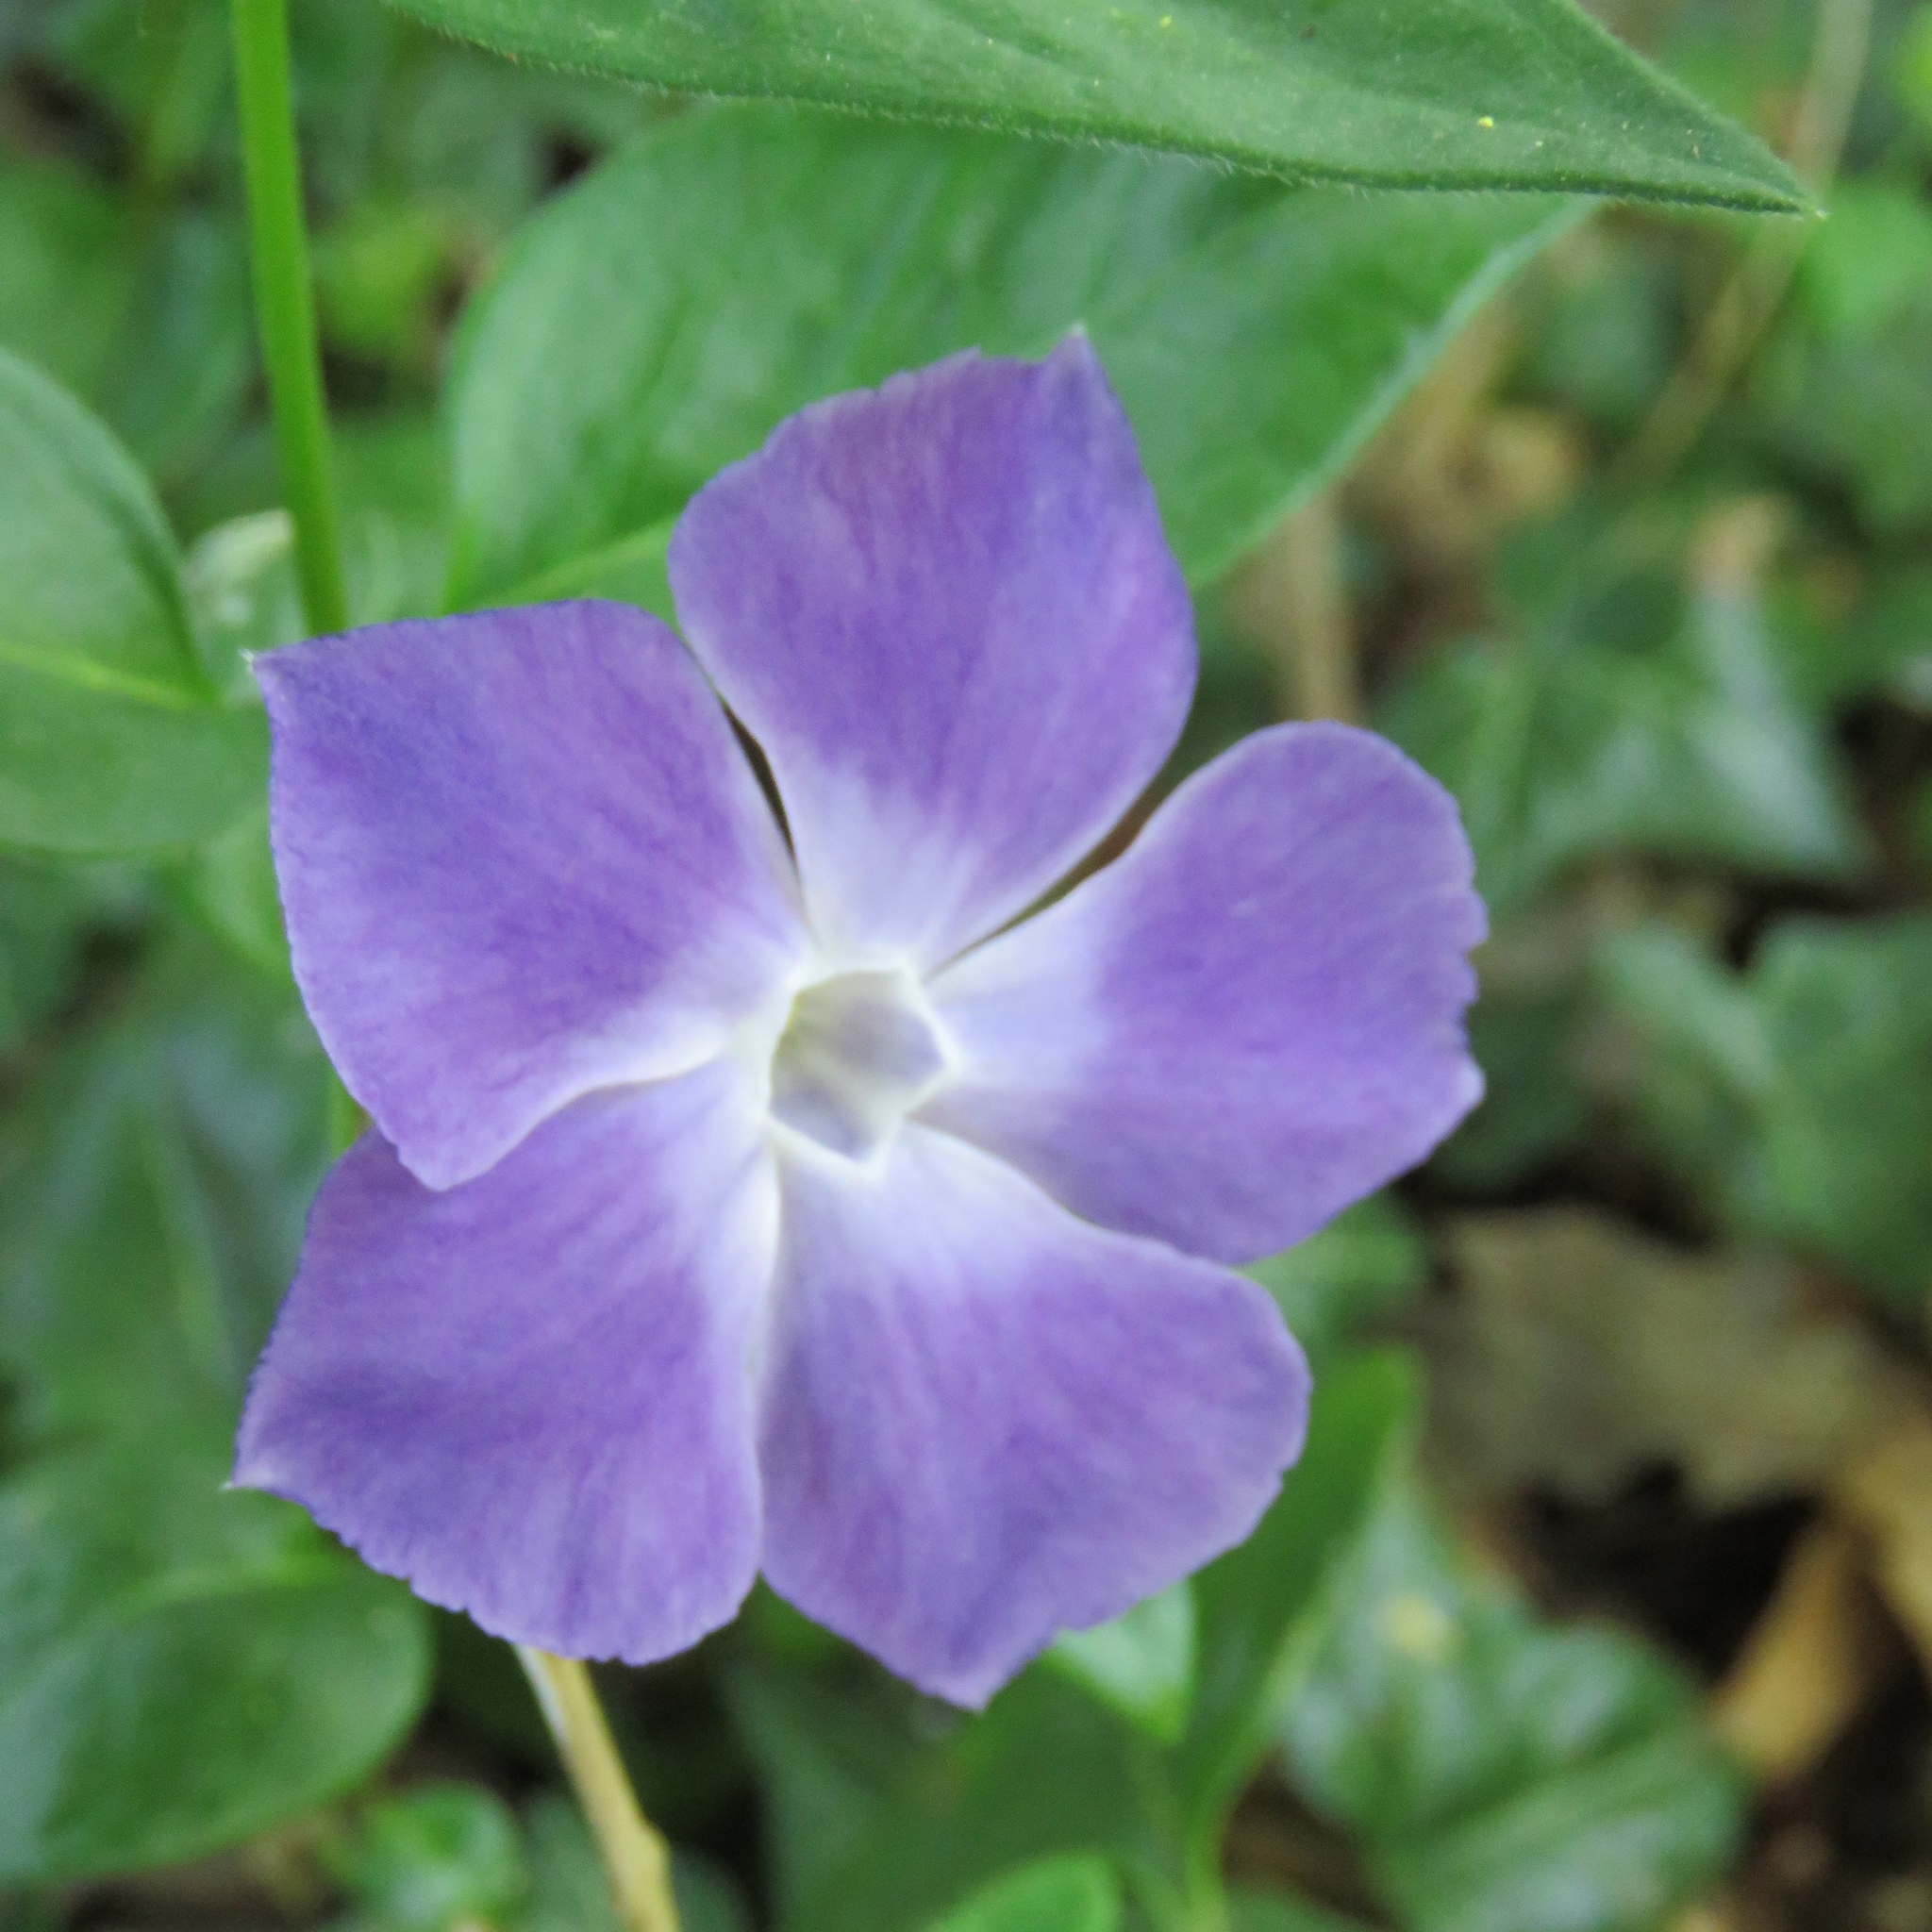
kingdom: Plantae
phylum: Tracheophyta
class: Magnoliopsida
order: Gentianales
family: Apocynaceae
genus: Vinca
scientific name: Vinca major
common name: Greater periwinkle
